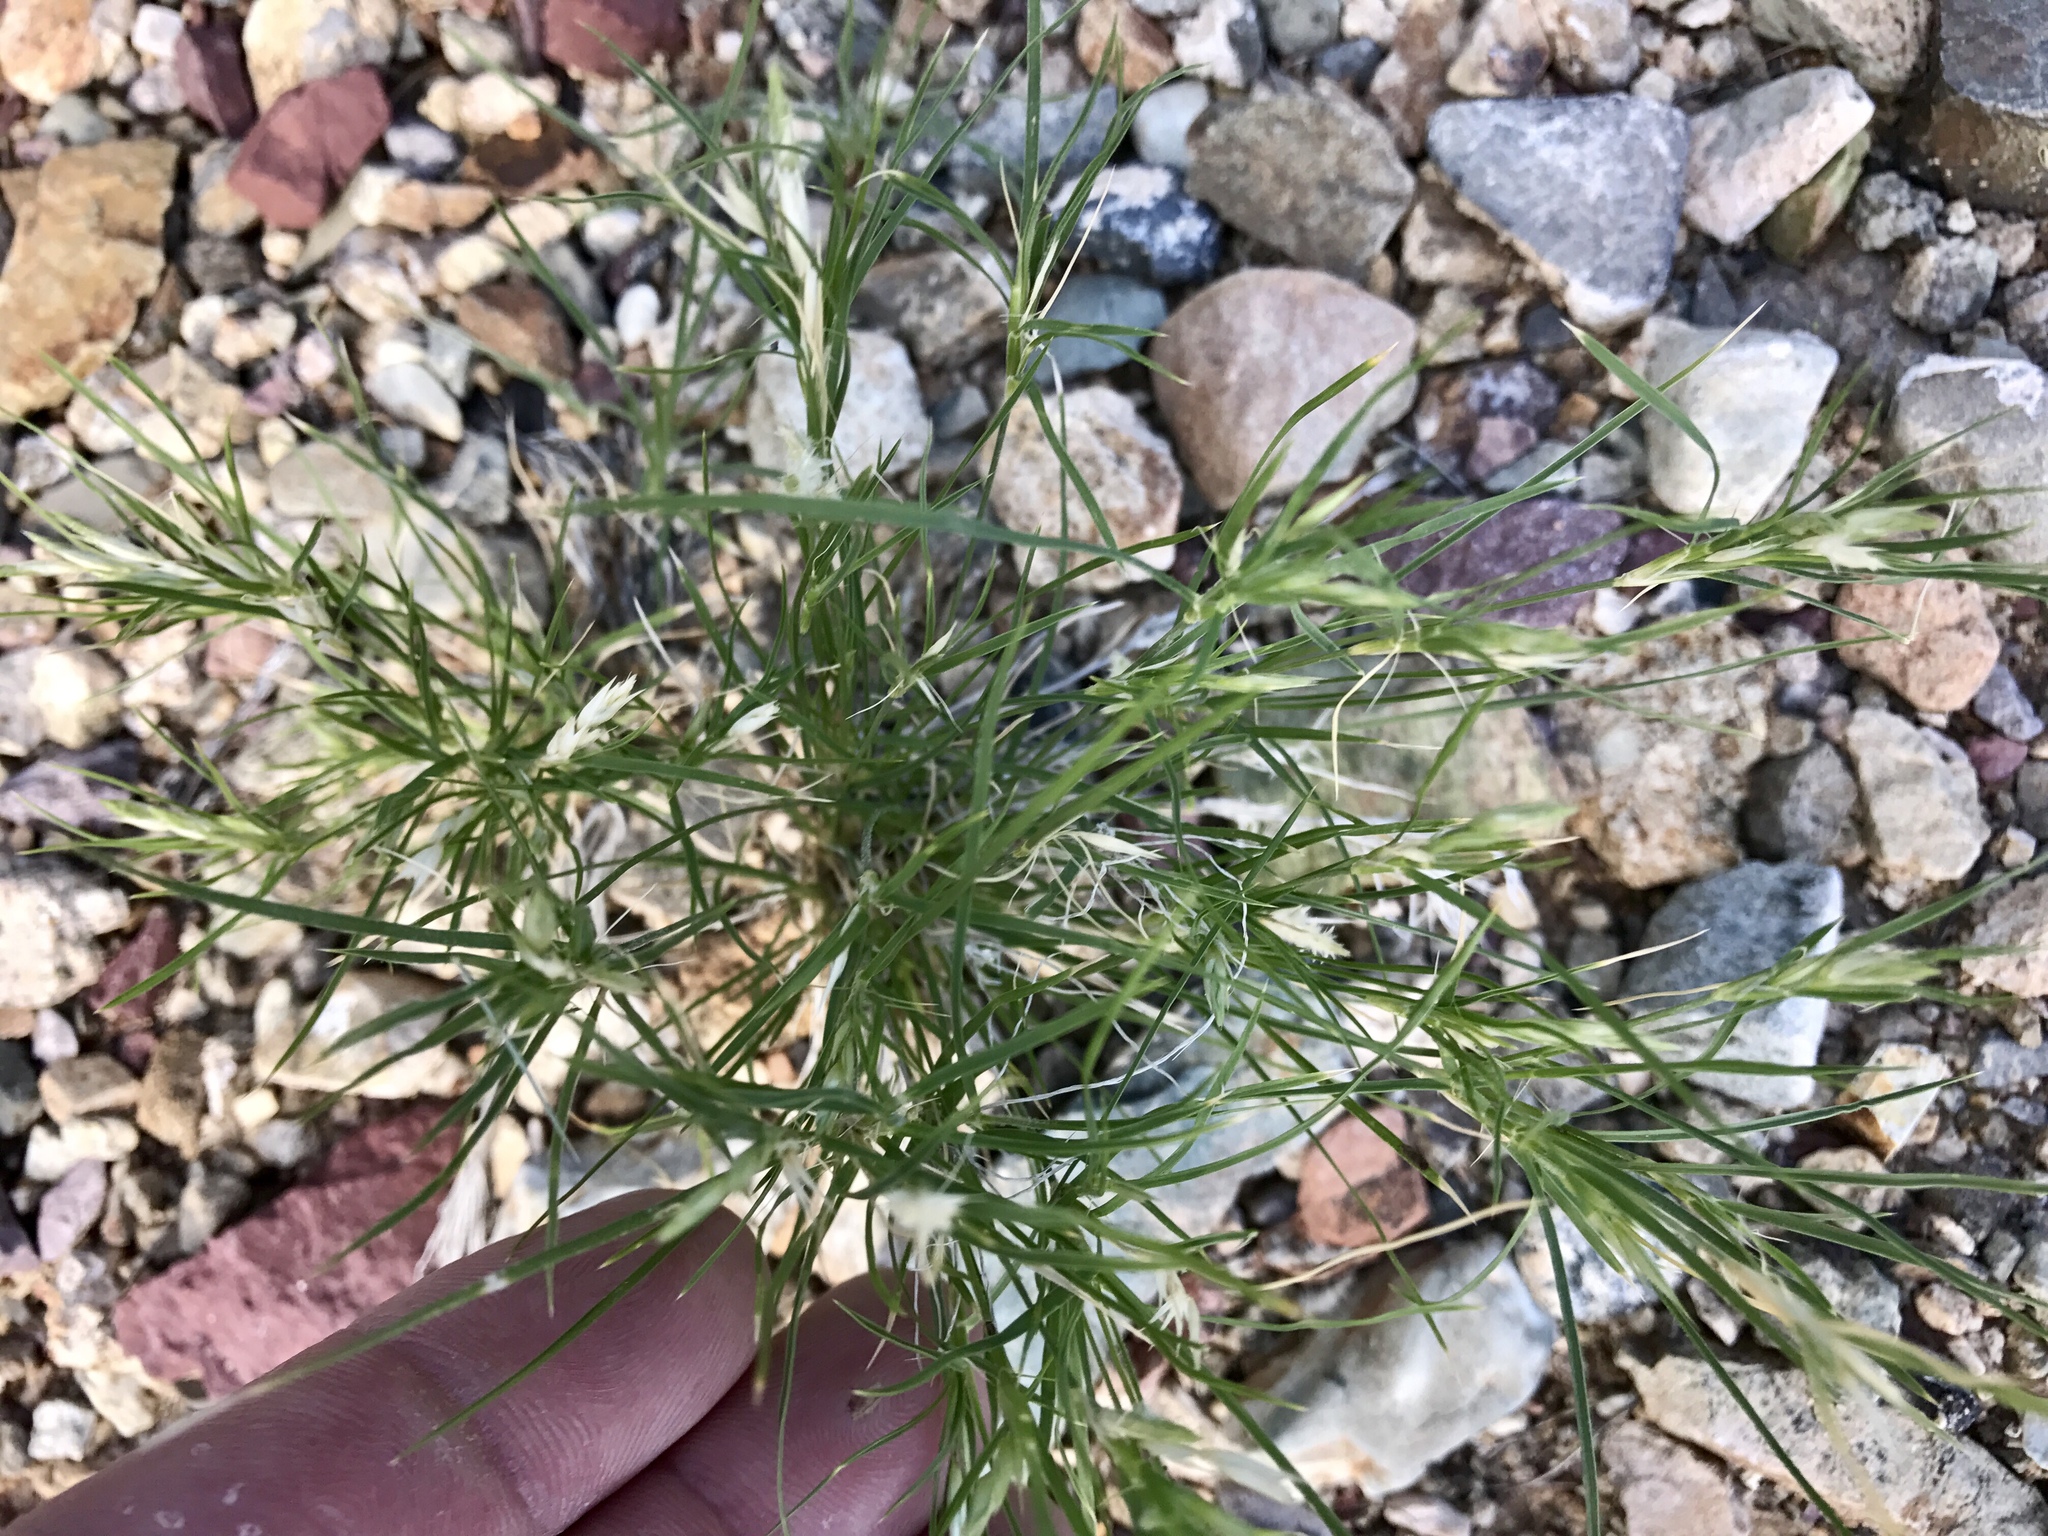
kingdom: Plantae
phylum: Tracheophyta
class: Liliopsida
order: Poales
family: Poaceae
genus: Dasyochloa
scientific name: Dasyochloa pulchella
